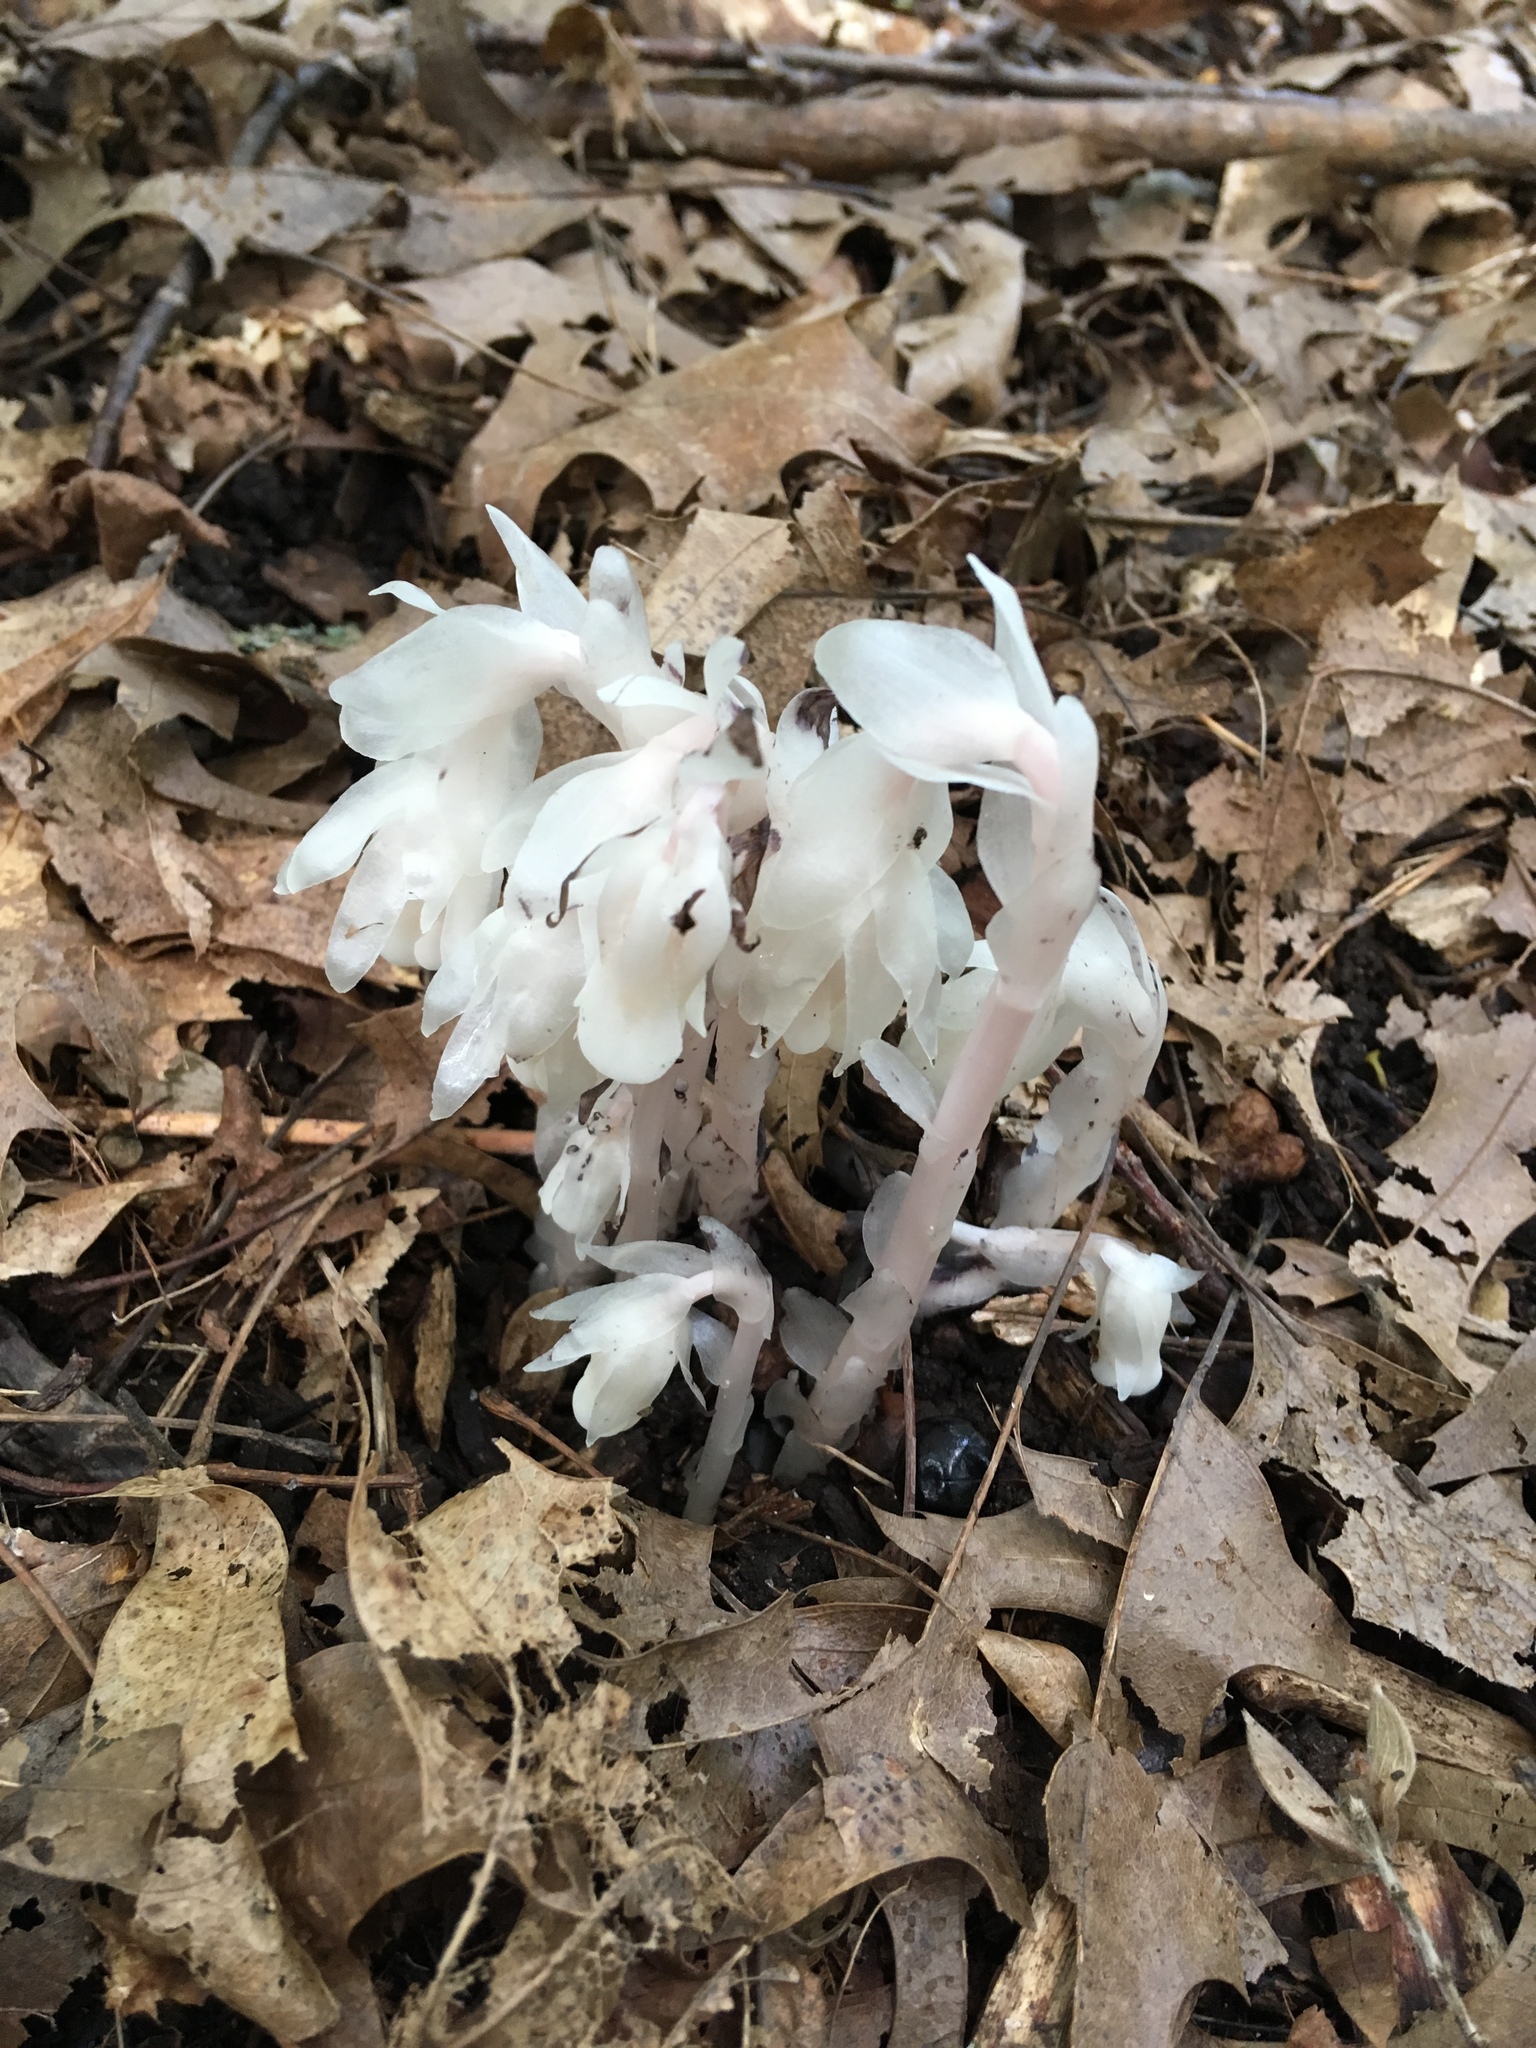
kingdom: Plantae
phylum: Tracheophyta
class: Magnoliopsida
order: Ericales
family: Ericaceae
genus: Monotropa
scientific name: Monotropa uniflora
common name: Convulsion root
